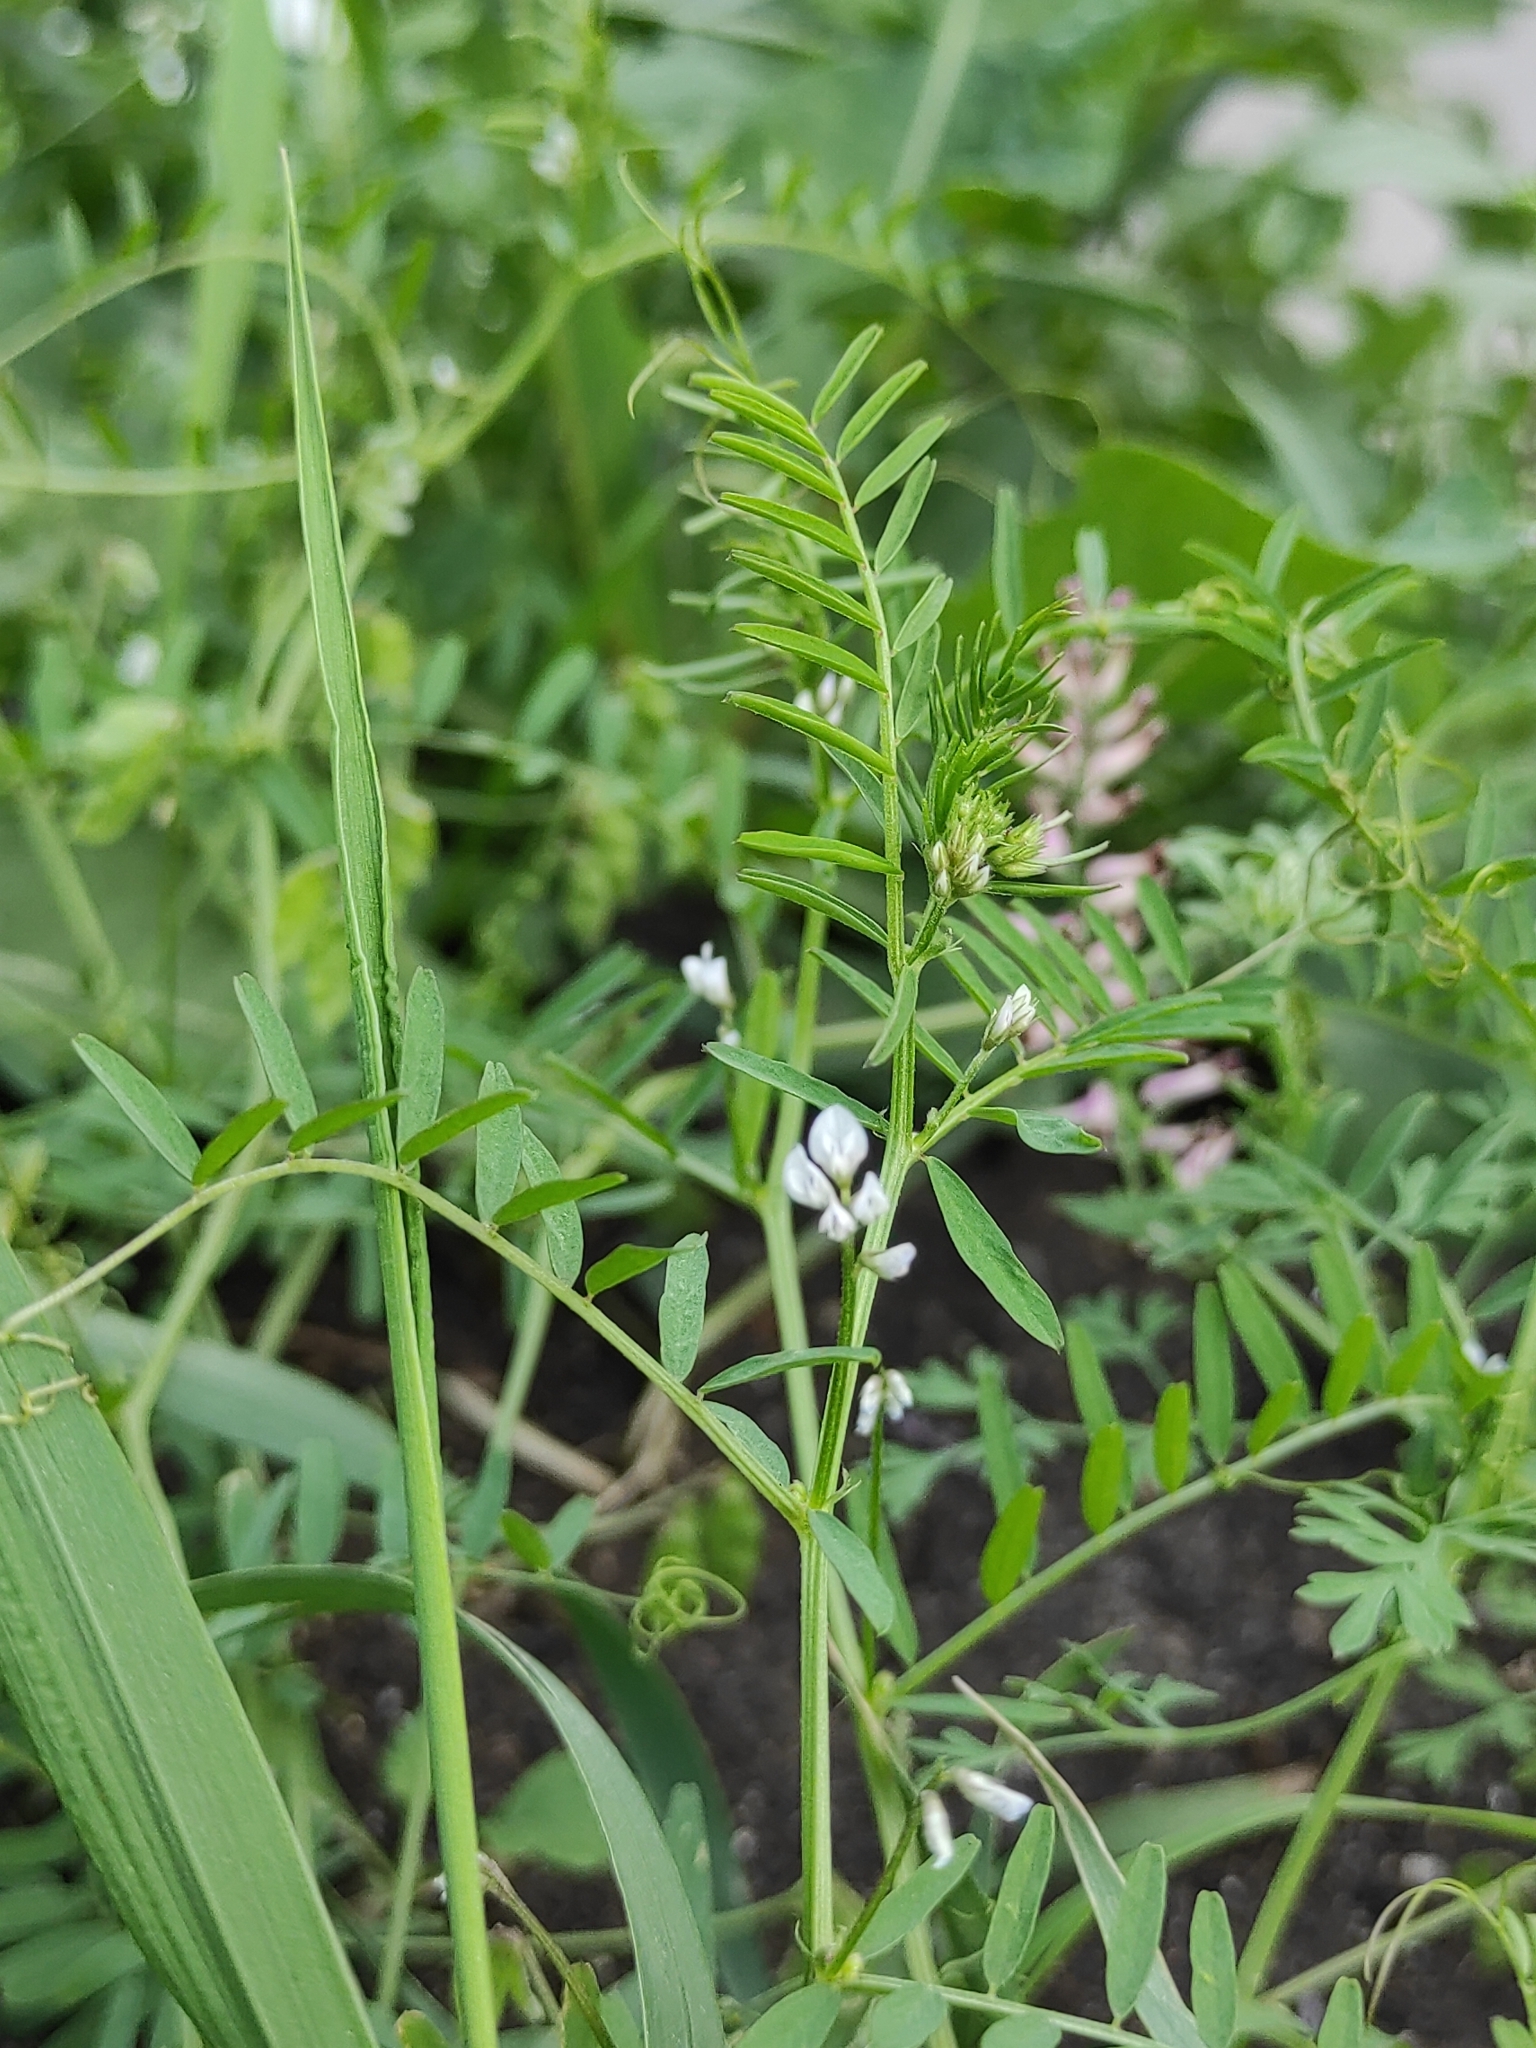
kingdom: Plantae
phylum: Tracheophyta
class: Magnoliopsida
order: Fabales
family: Fabaceae
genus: Vicia
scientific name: Vicia hirsuta
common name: Tiny vetch
